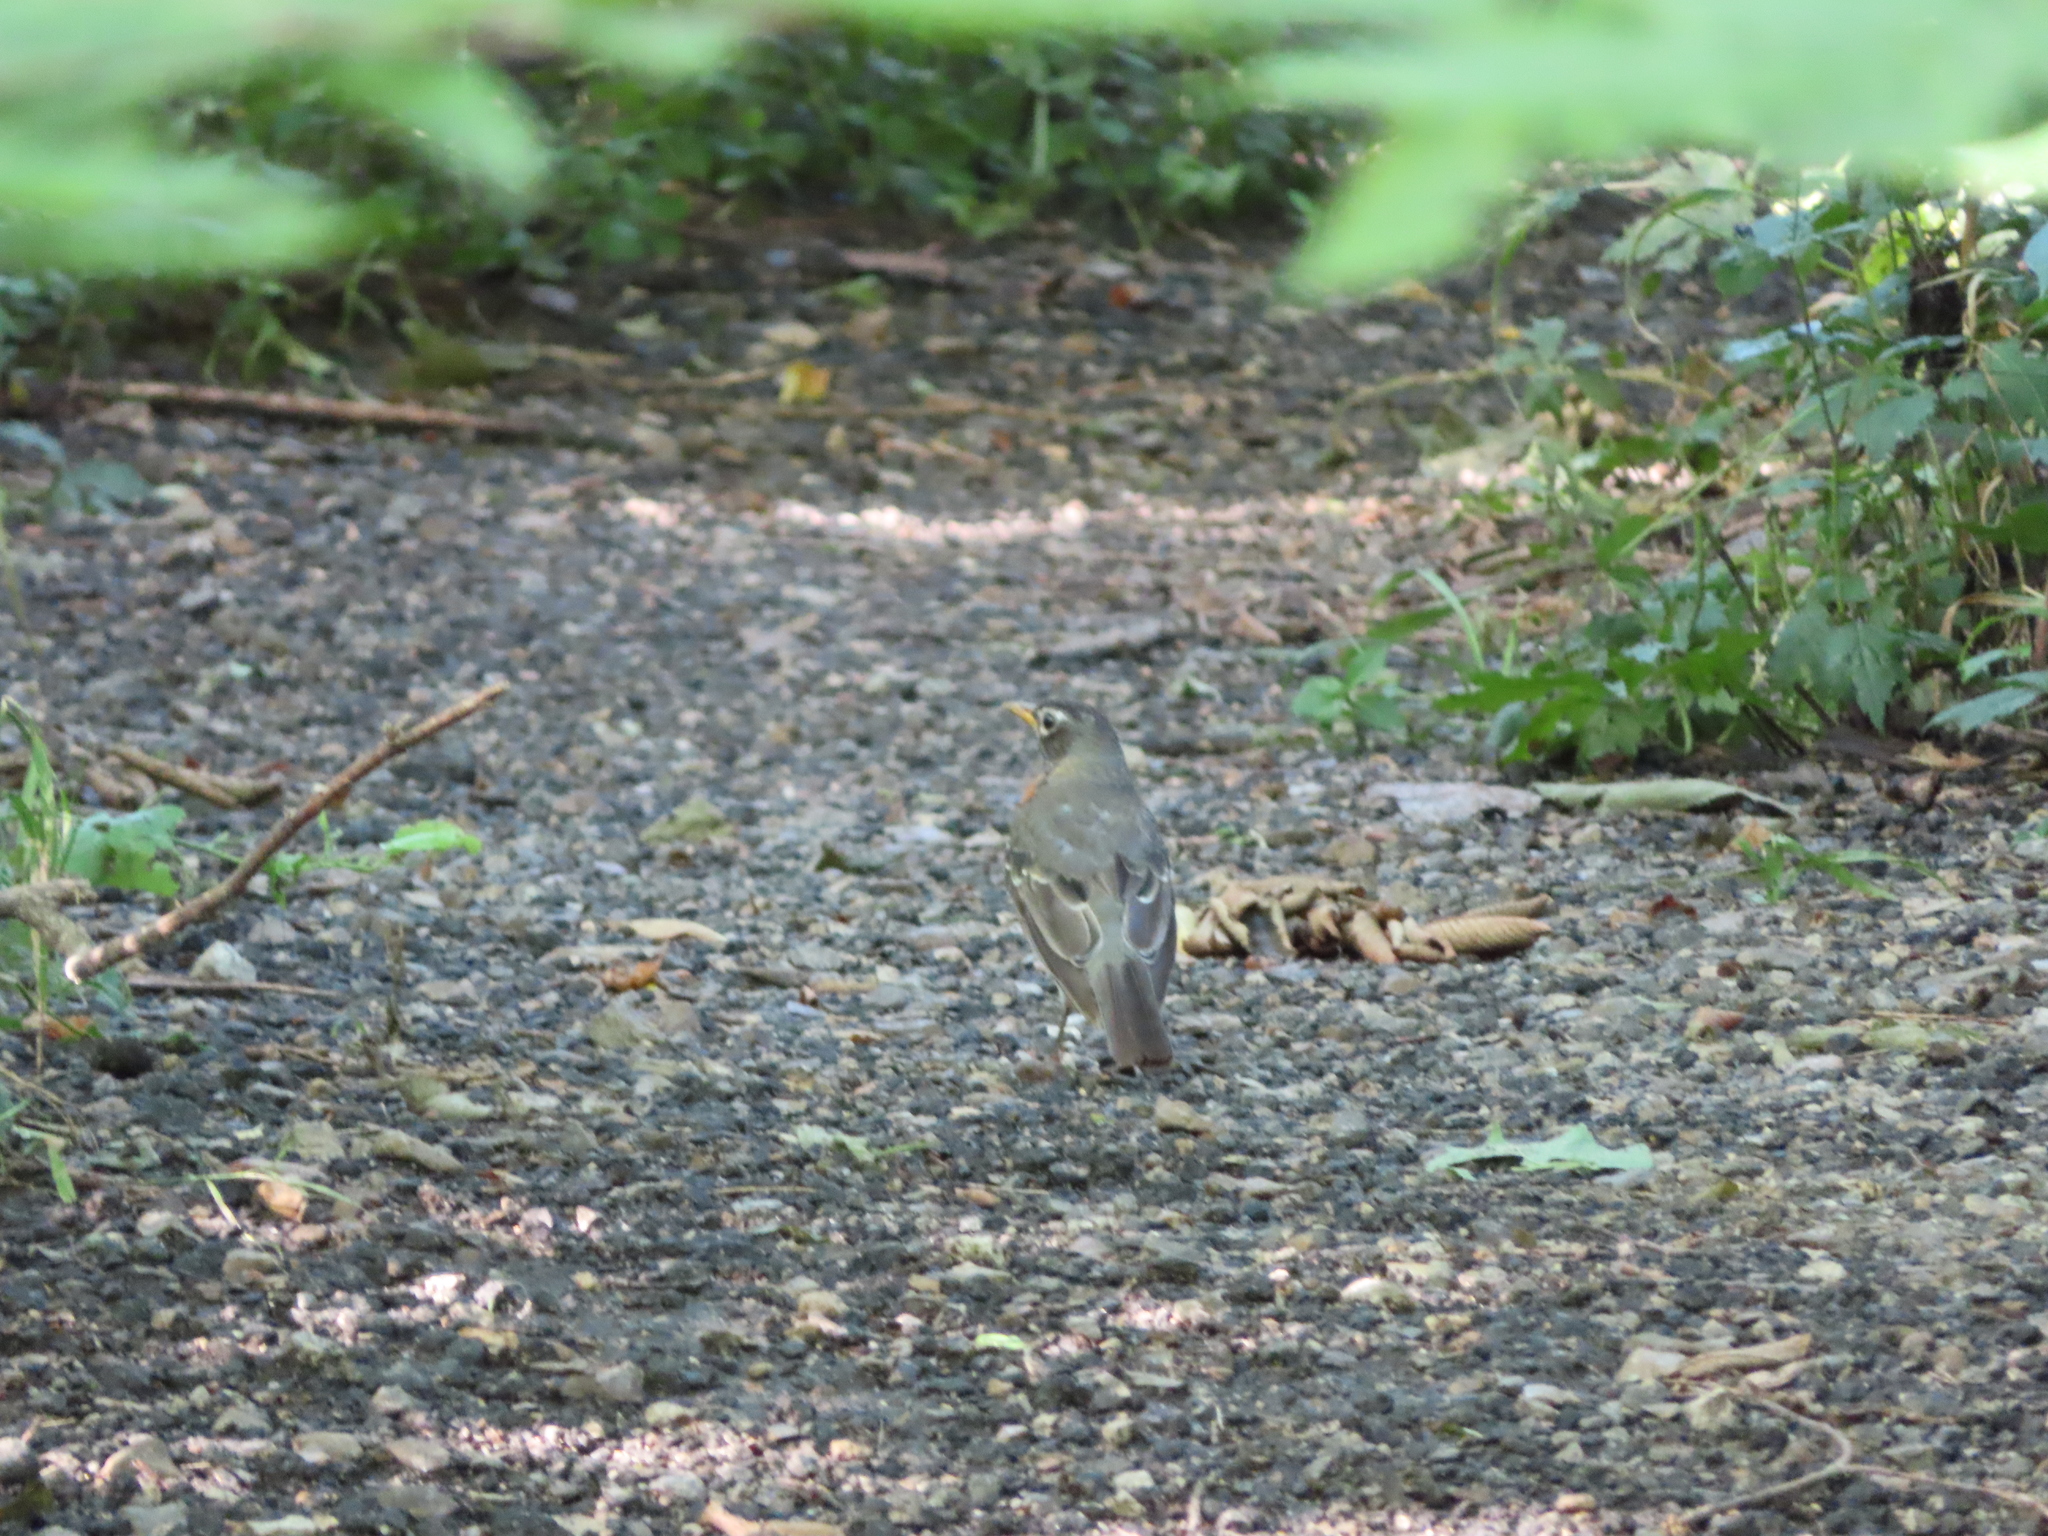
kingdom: Animalia
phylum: Chordata
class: Aves
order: Passeriformes
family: Turdidae
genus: Turdus
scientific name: Turdus migratorius
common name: American robin
